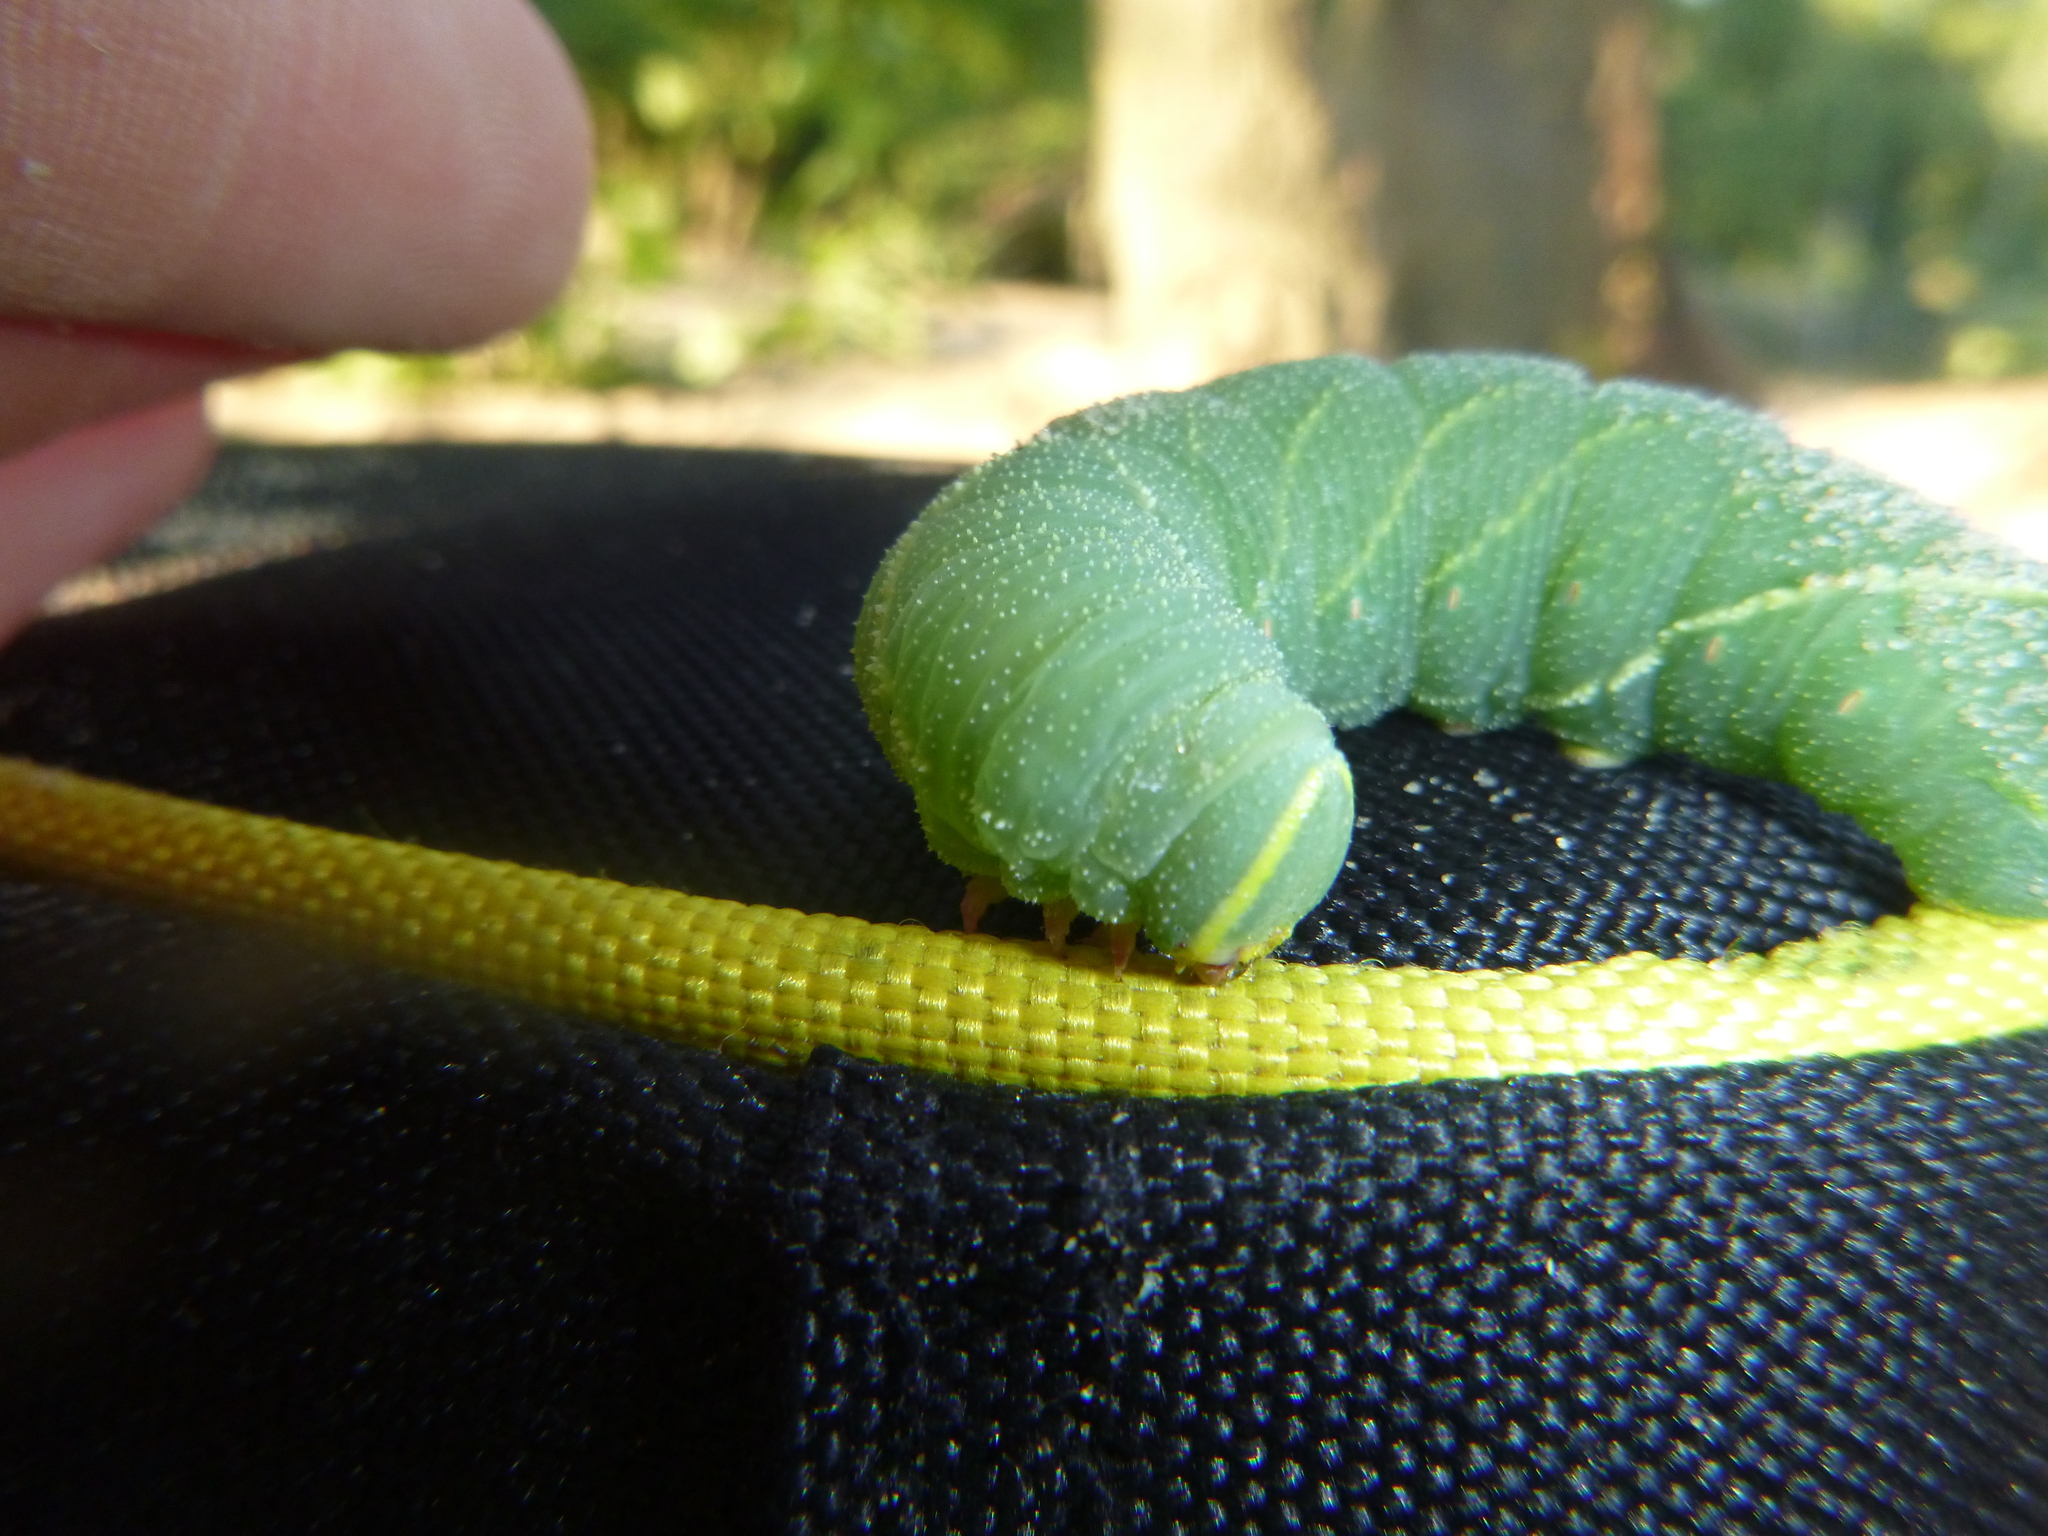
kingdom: Animalia
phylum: Arthropoda
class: Insecta
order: Lepidoptera
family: Sphingidae
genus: Laothoe
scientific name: Laothoe populi
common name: Poplar hawk-moth
